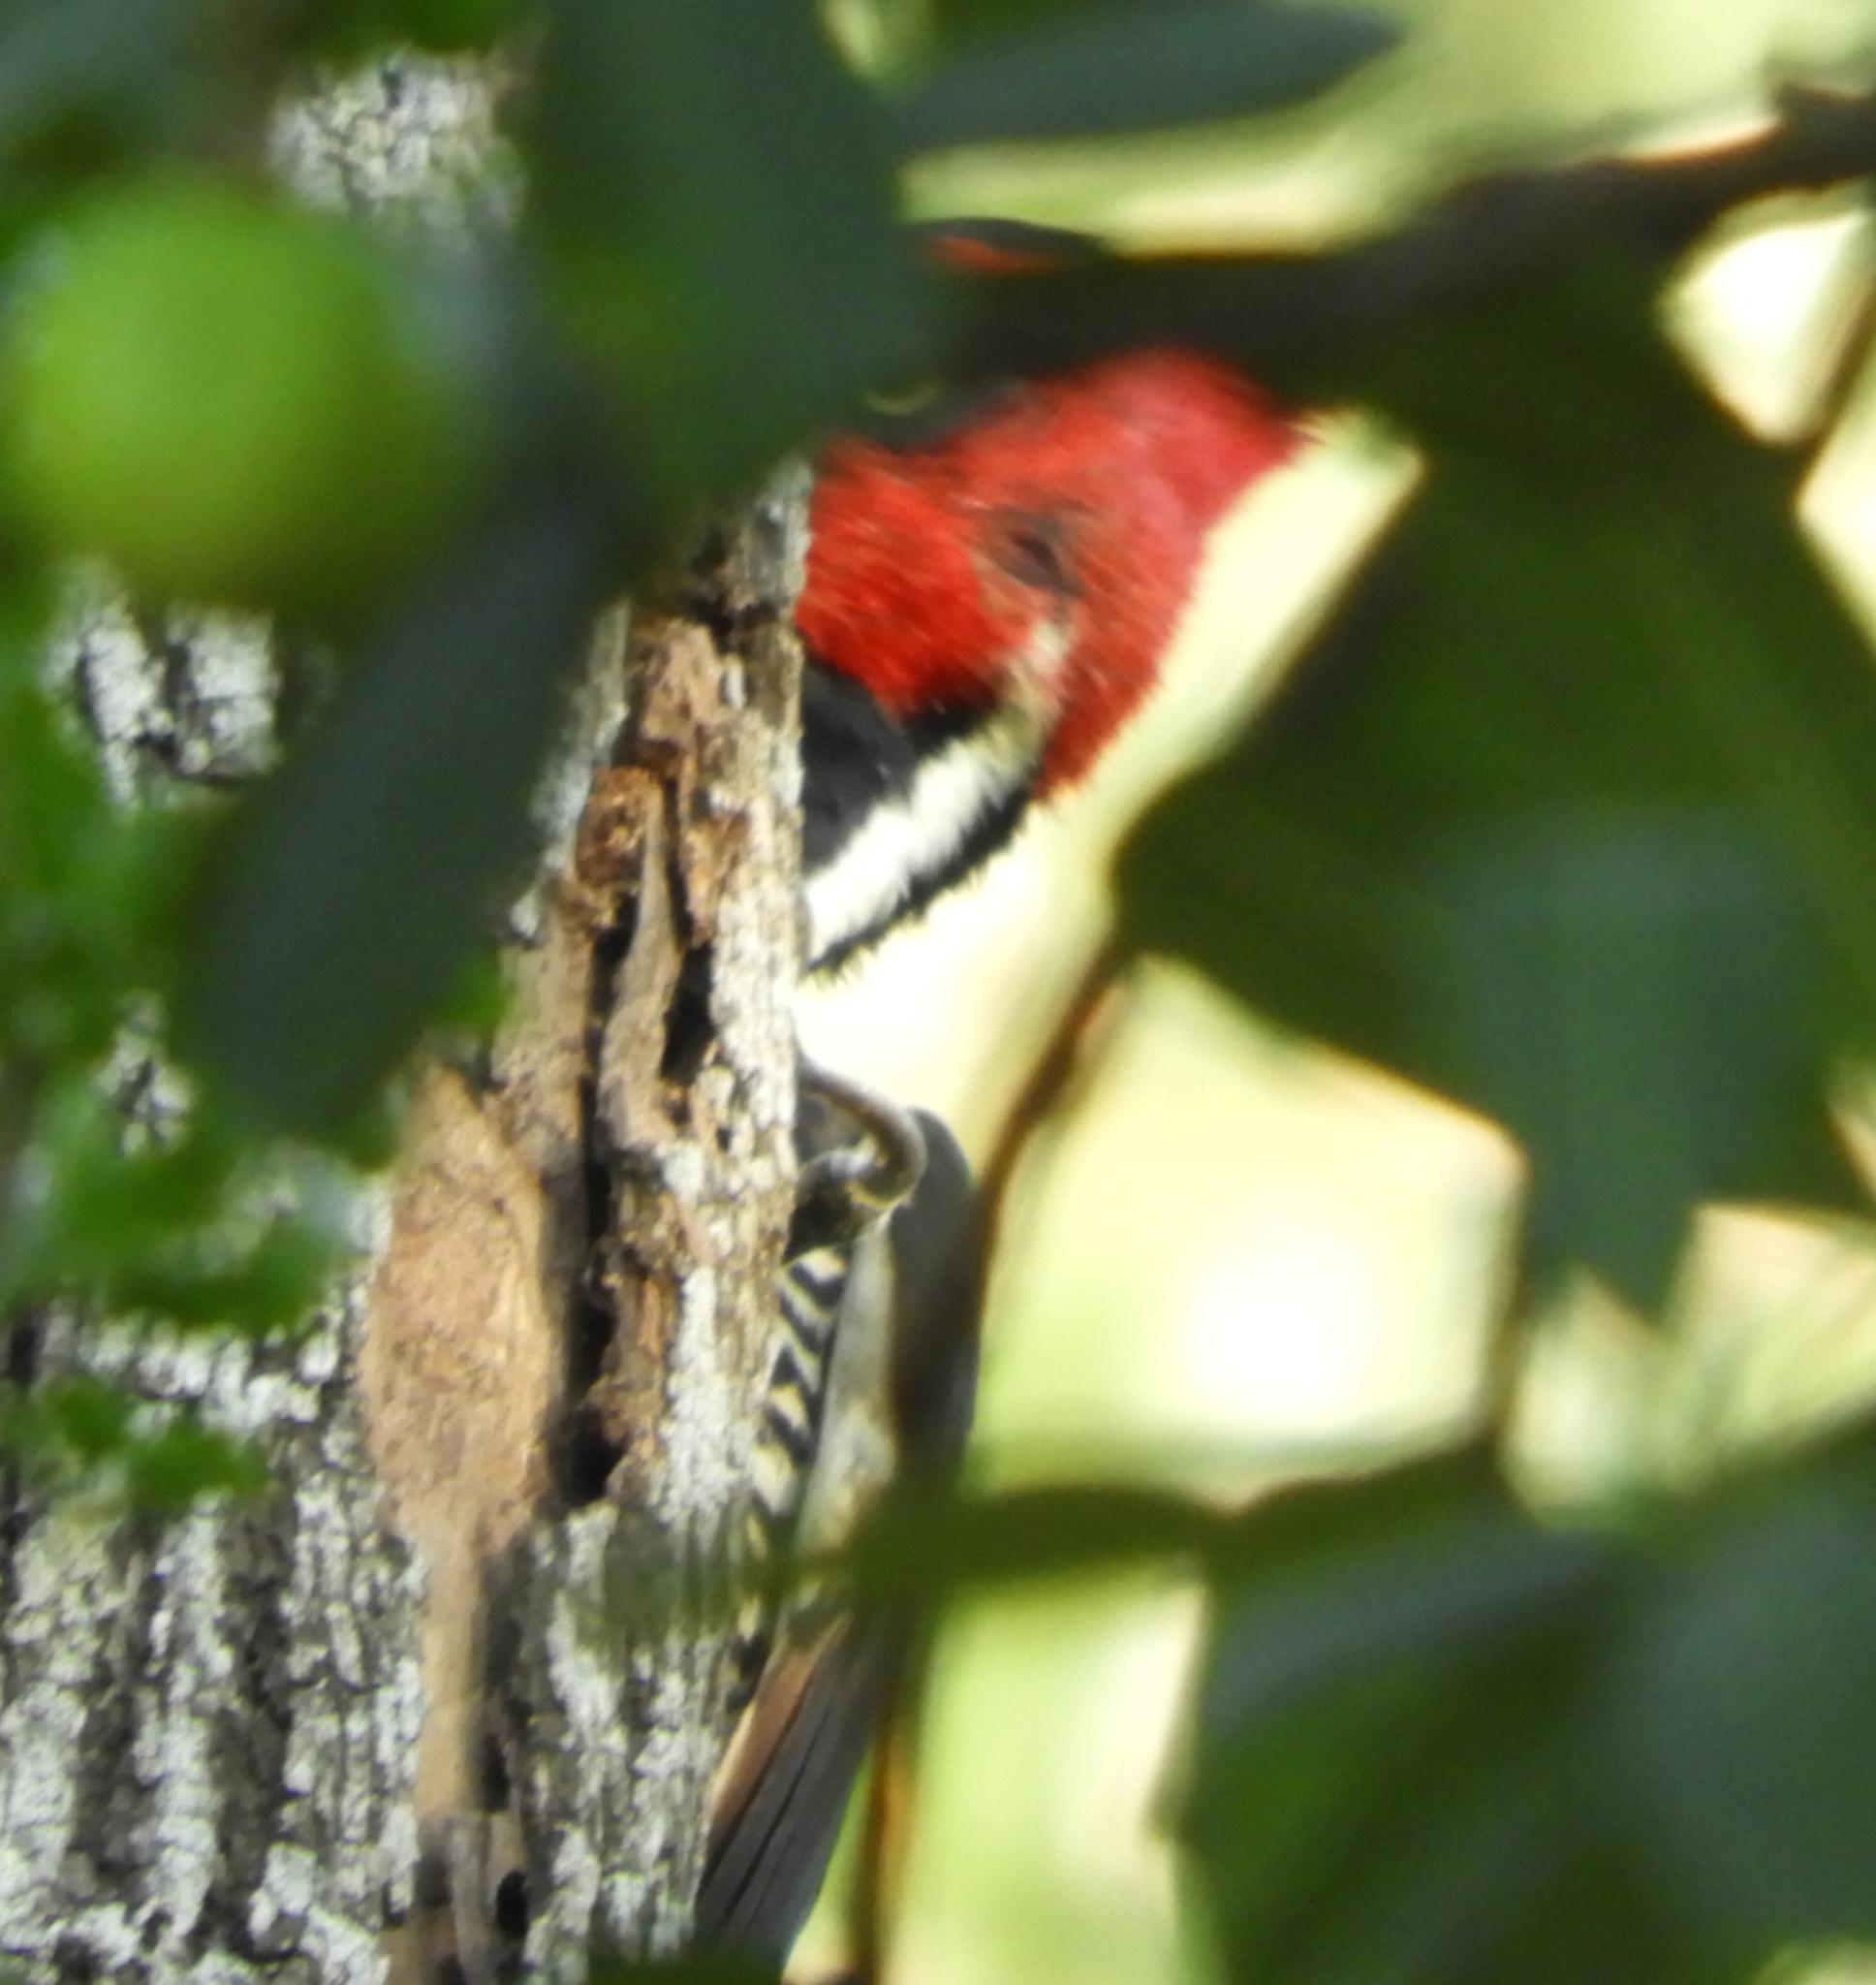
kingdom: Animalia
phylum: Chordata
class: Aves
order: Piciformes
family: Picidae
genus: Campephilus
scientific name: Campephilus guatemalensis
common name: Pale-billed woodpecker
